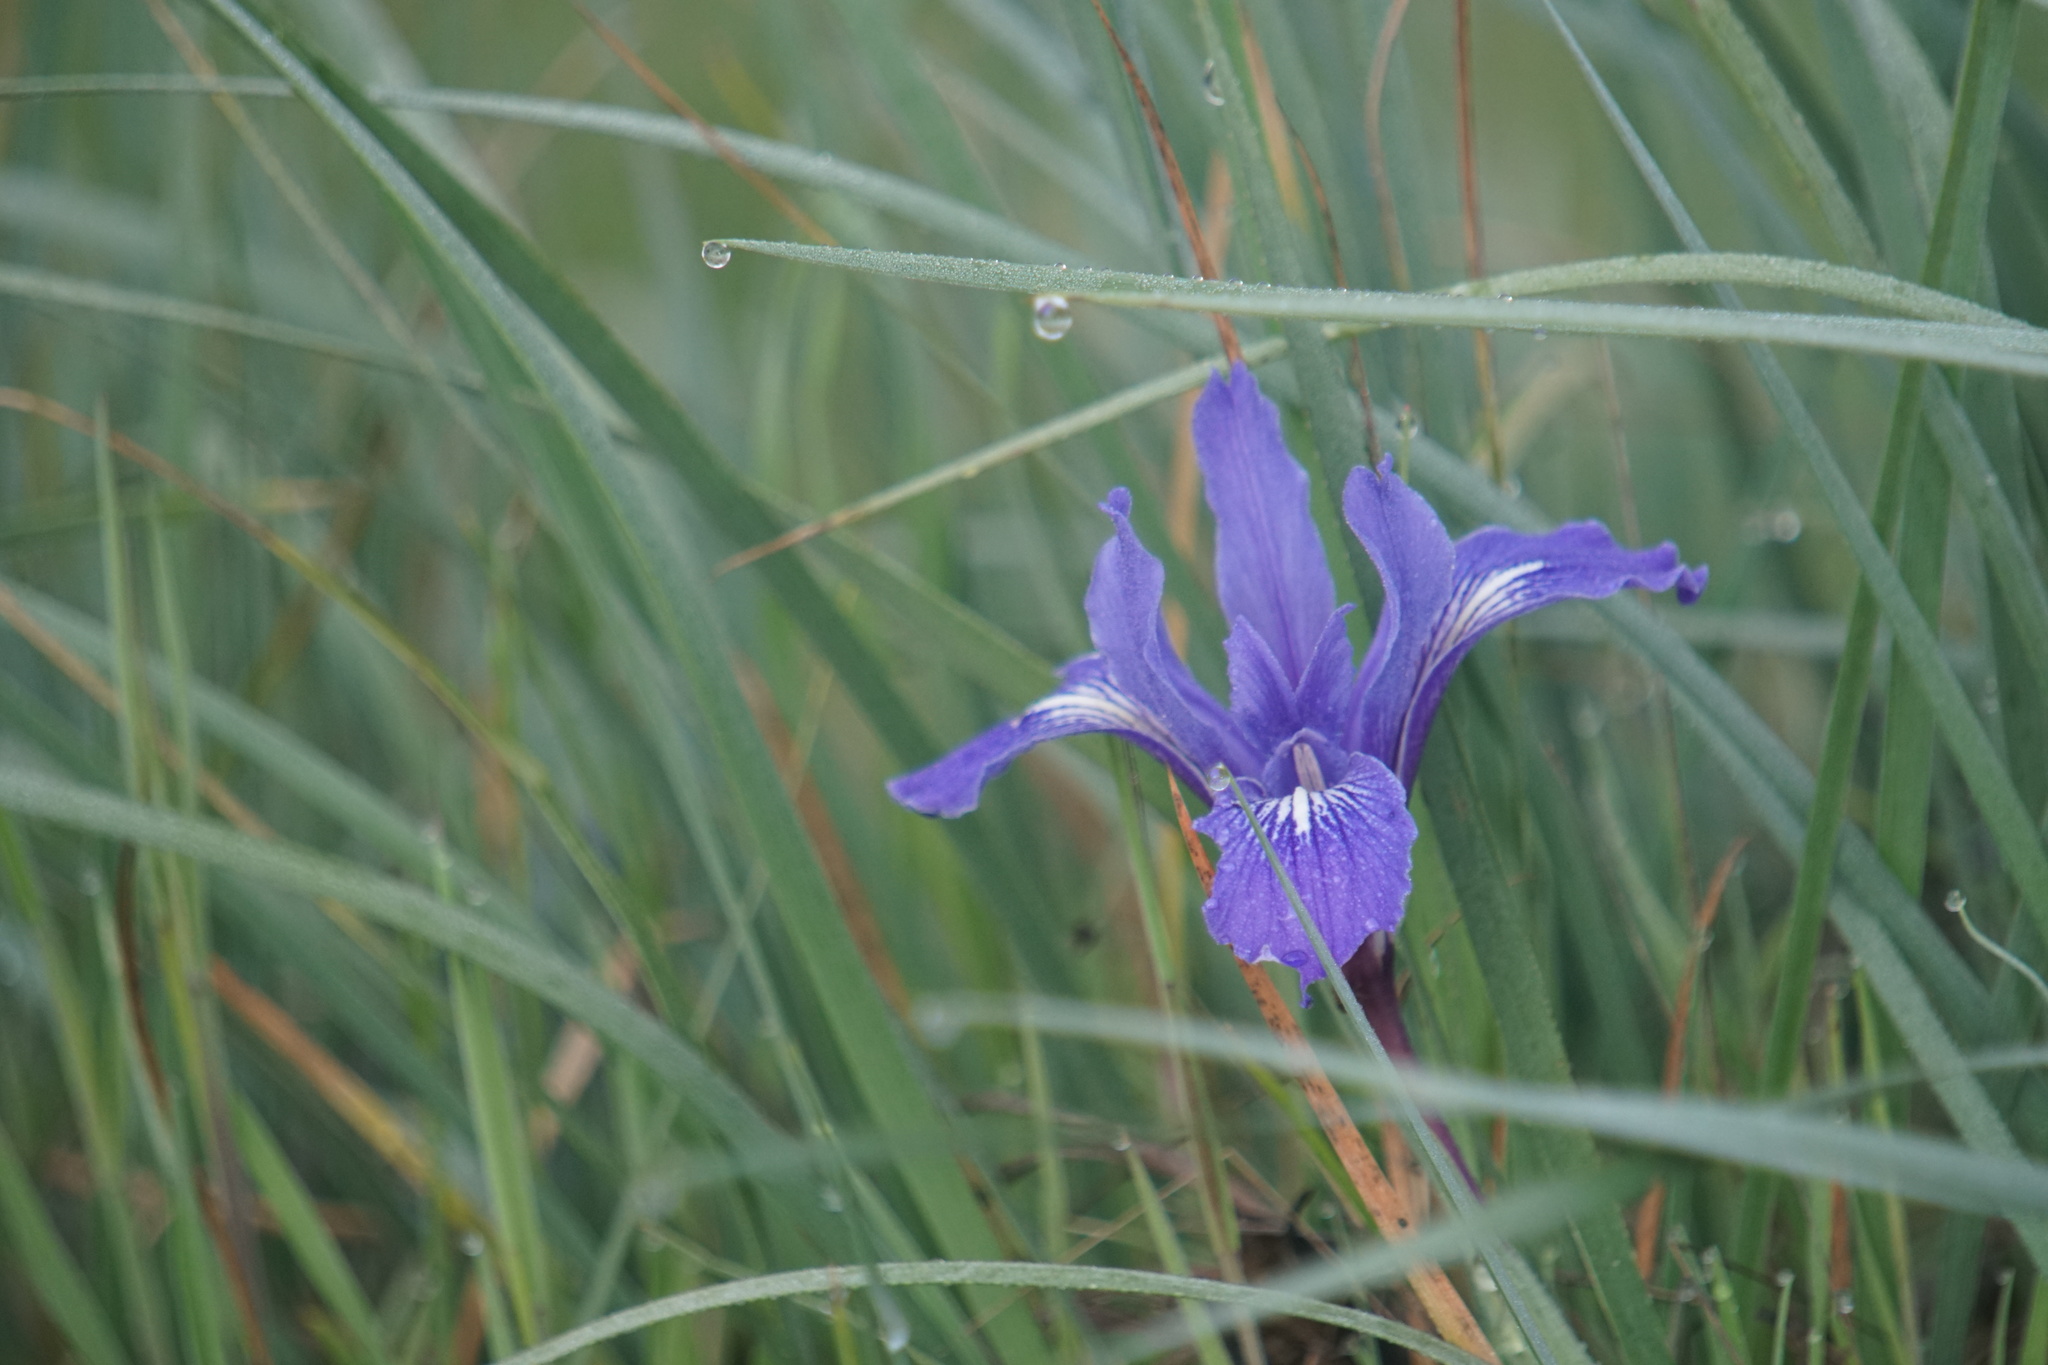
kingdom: Plantae
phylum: Tracheophyta
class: Liliopsida
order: Asparagales
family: Iridaceae
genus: Iris
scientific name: Iris douglasiana
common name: Marin iris
